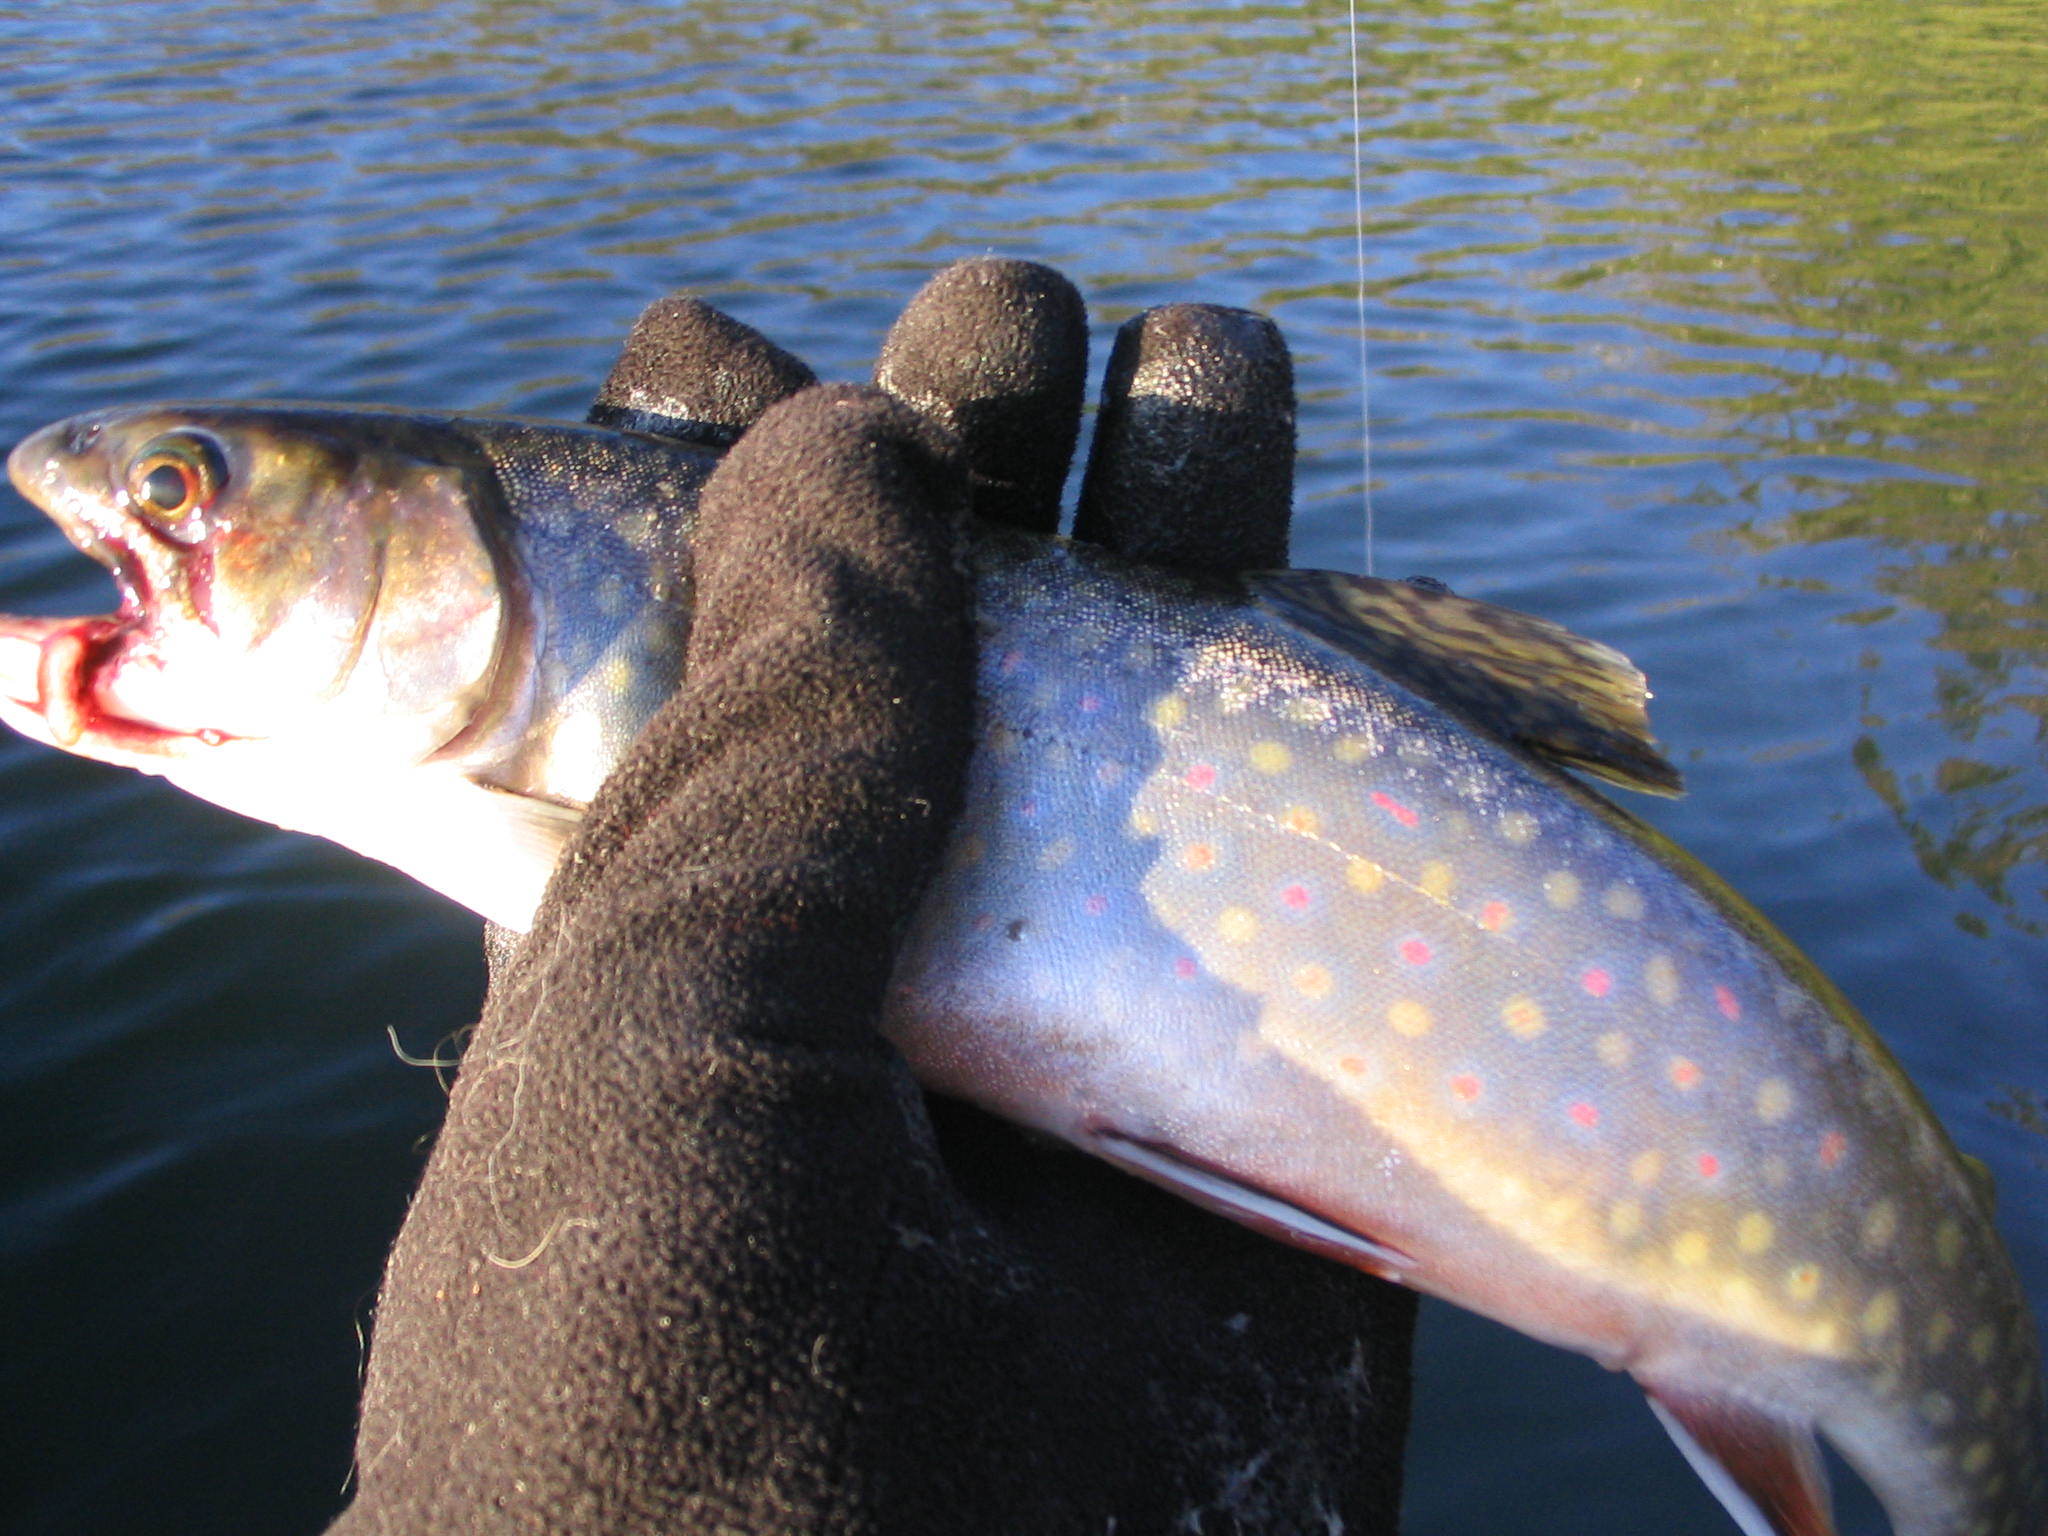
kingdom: Animalia
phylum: Chordata
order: Salmoniformes
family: Salmonidae
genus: Salvelinus
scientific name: Salvelinus fontinalis
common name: Brook trout
